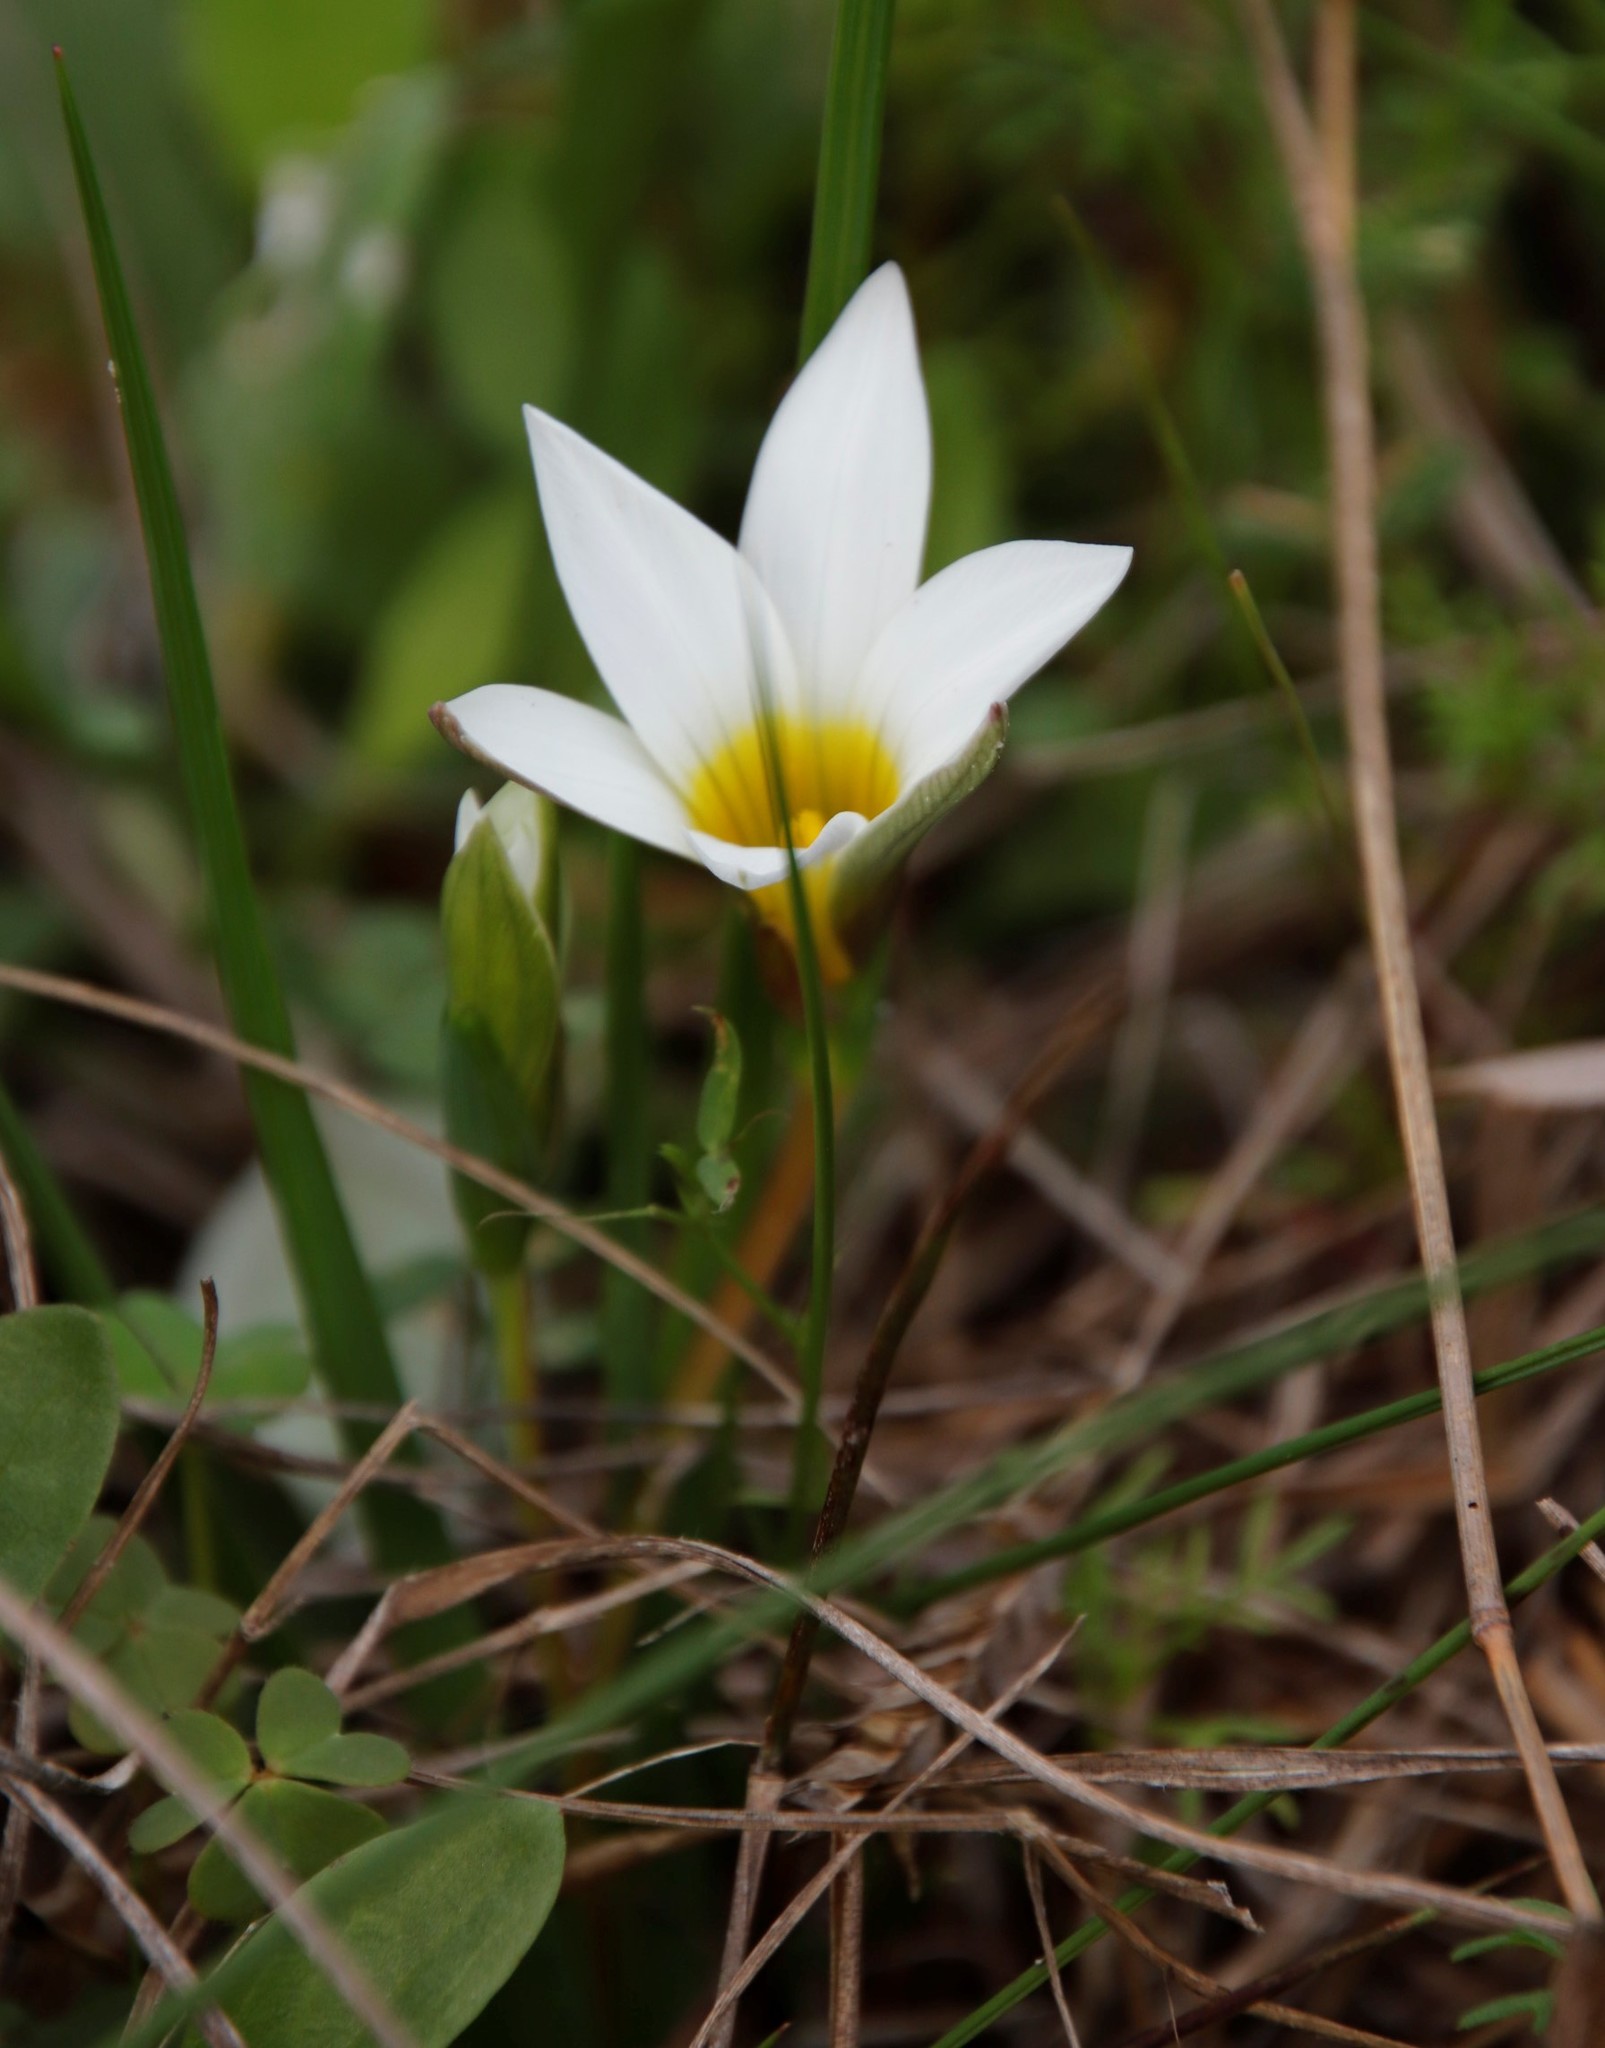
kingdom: Plantae
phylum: Tracheophyta
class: Liliopsida
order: Asparagales
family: Iridaceae
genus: Romulea
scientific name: Romulea flava
